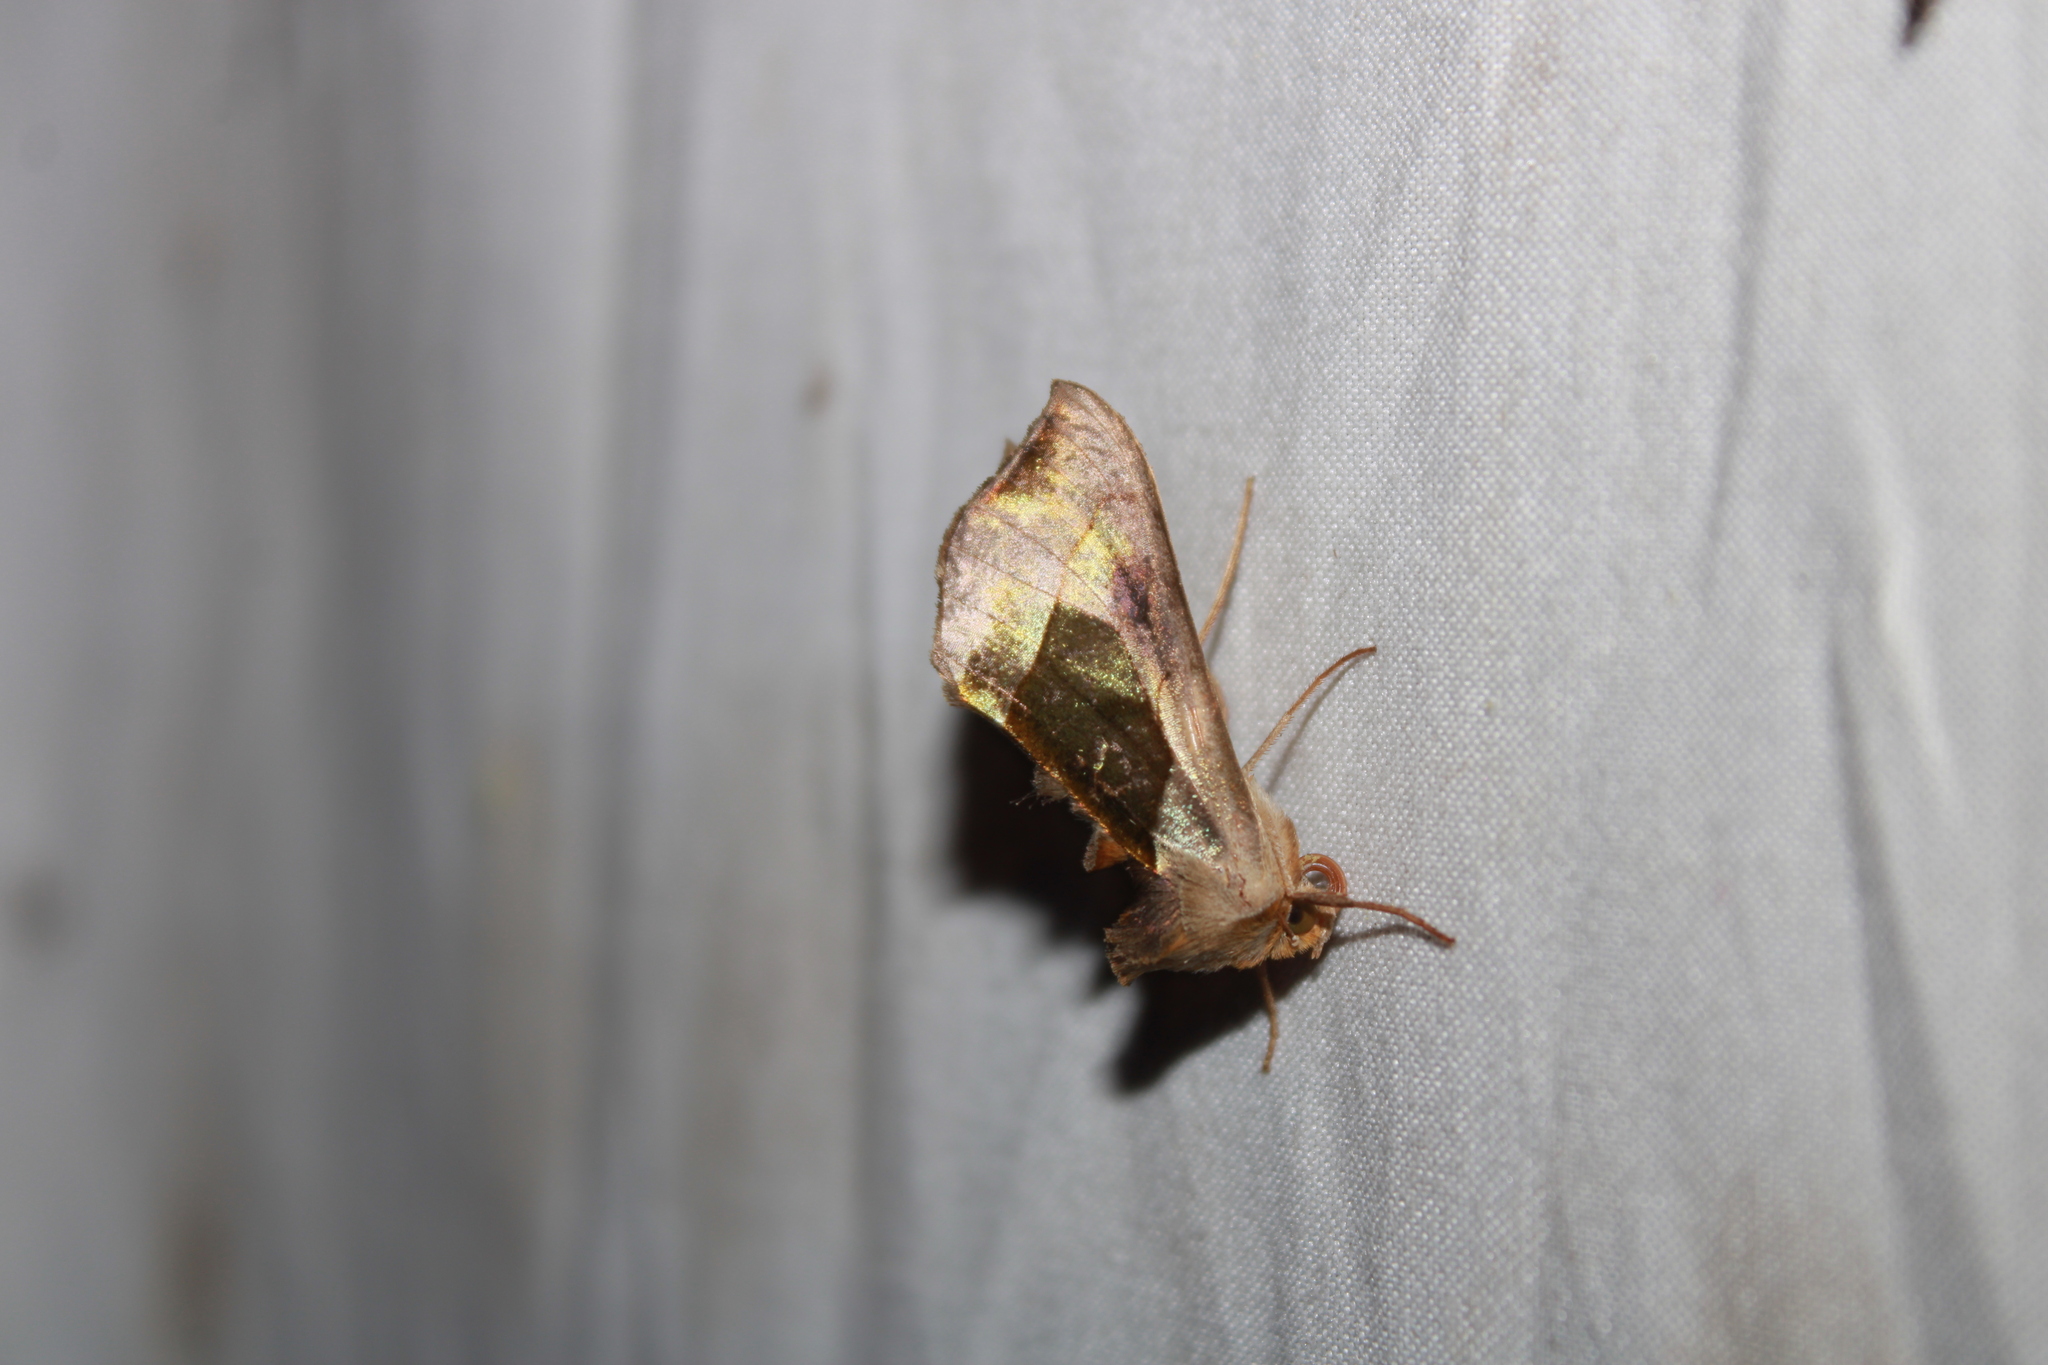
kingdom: Animalia
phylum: Arthropoda
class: Insecta
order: Lepidoptera
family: Noctuidae
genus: Diachrysia
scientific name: Diachrysia balluca
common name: Green-patched looper moth
